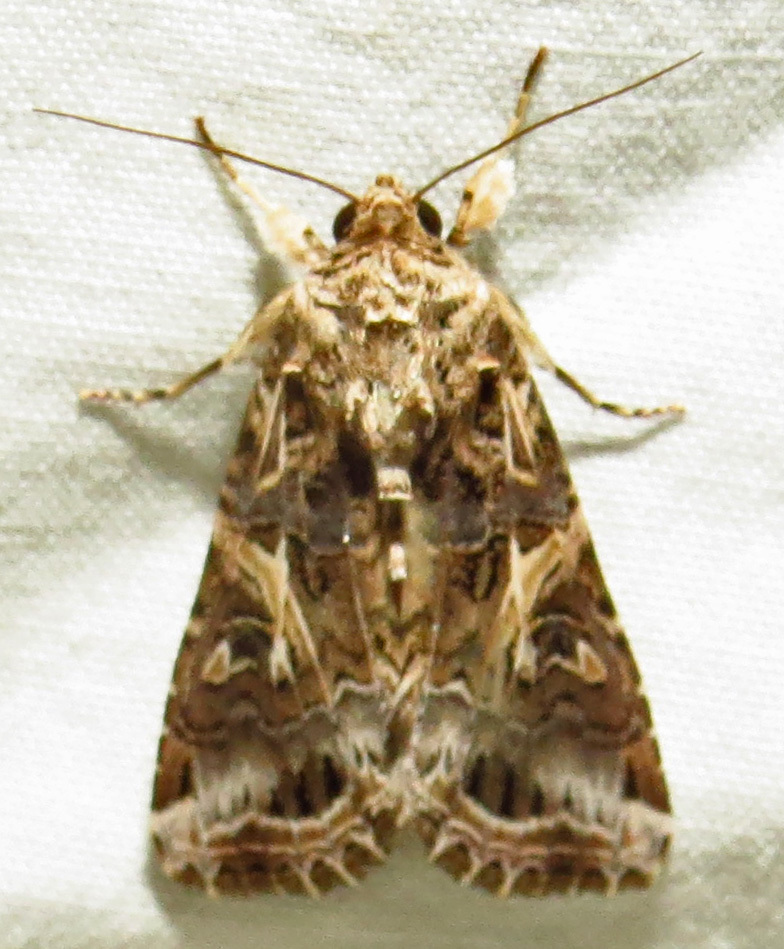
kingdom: Animalia
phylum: Arthropoda
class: Insecta
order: Lepidoptera
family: Noctuidae
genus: Spodoptera
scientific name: Spodoptera ornithogalli
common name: Yellow-striped armyworm
